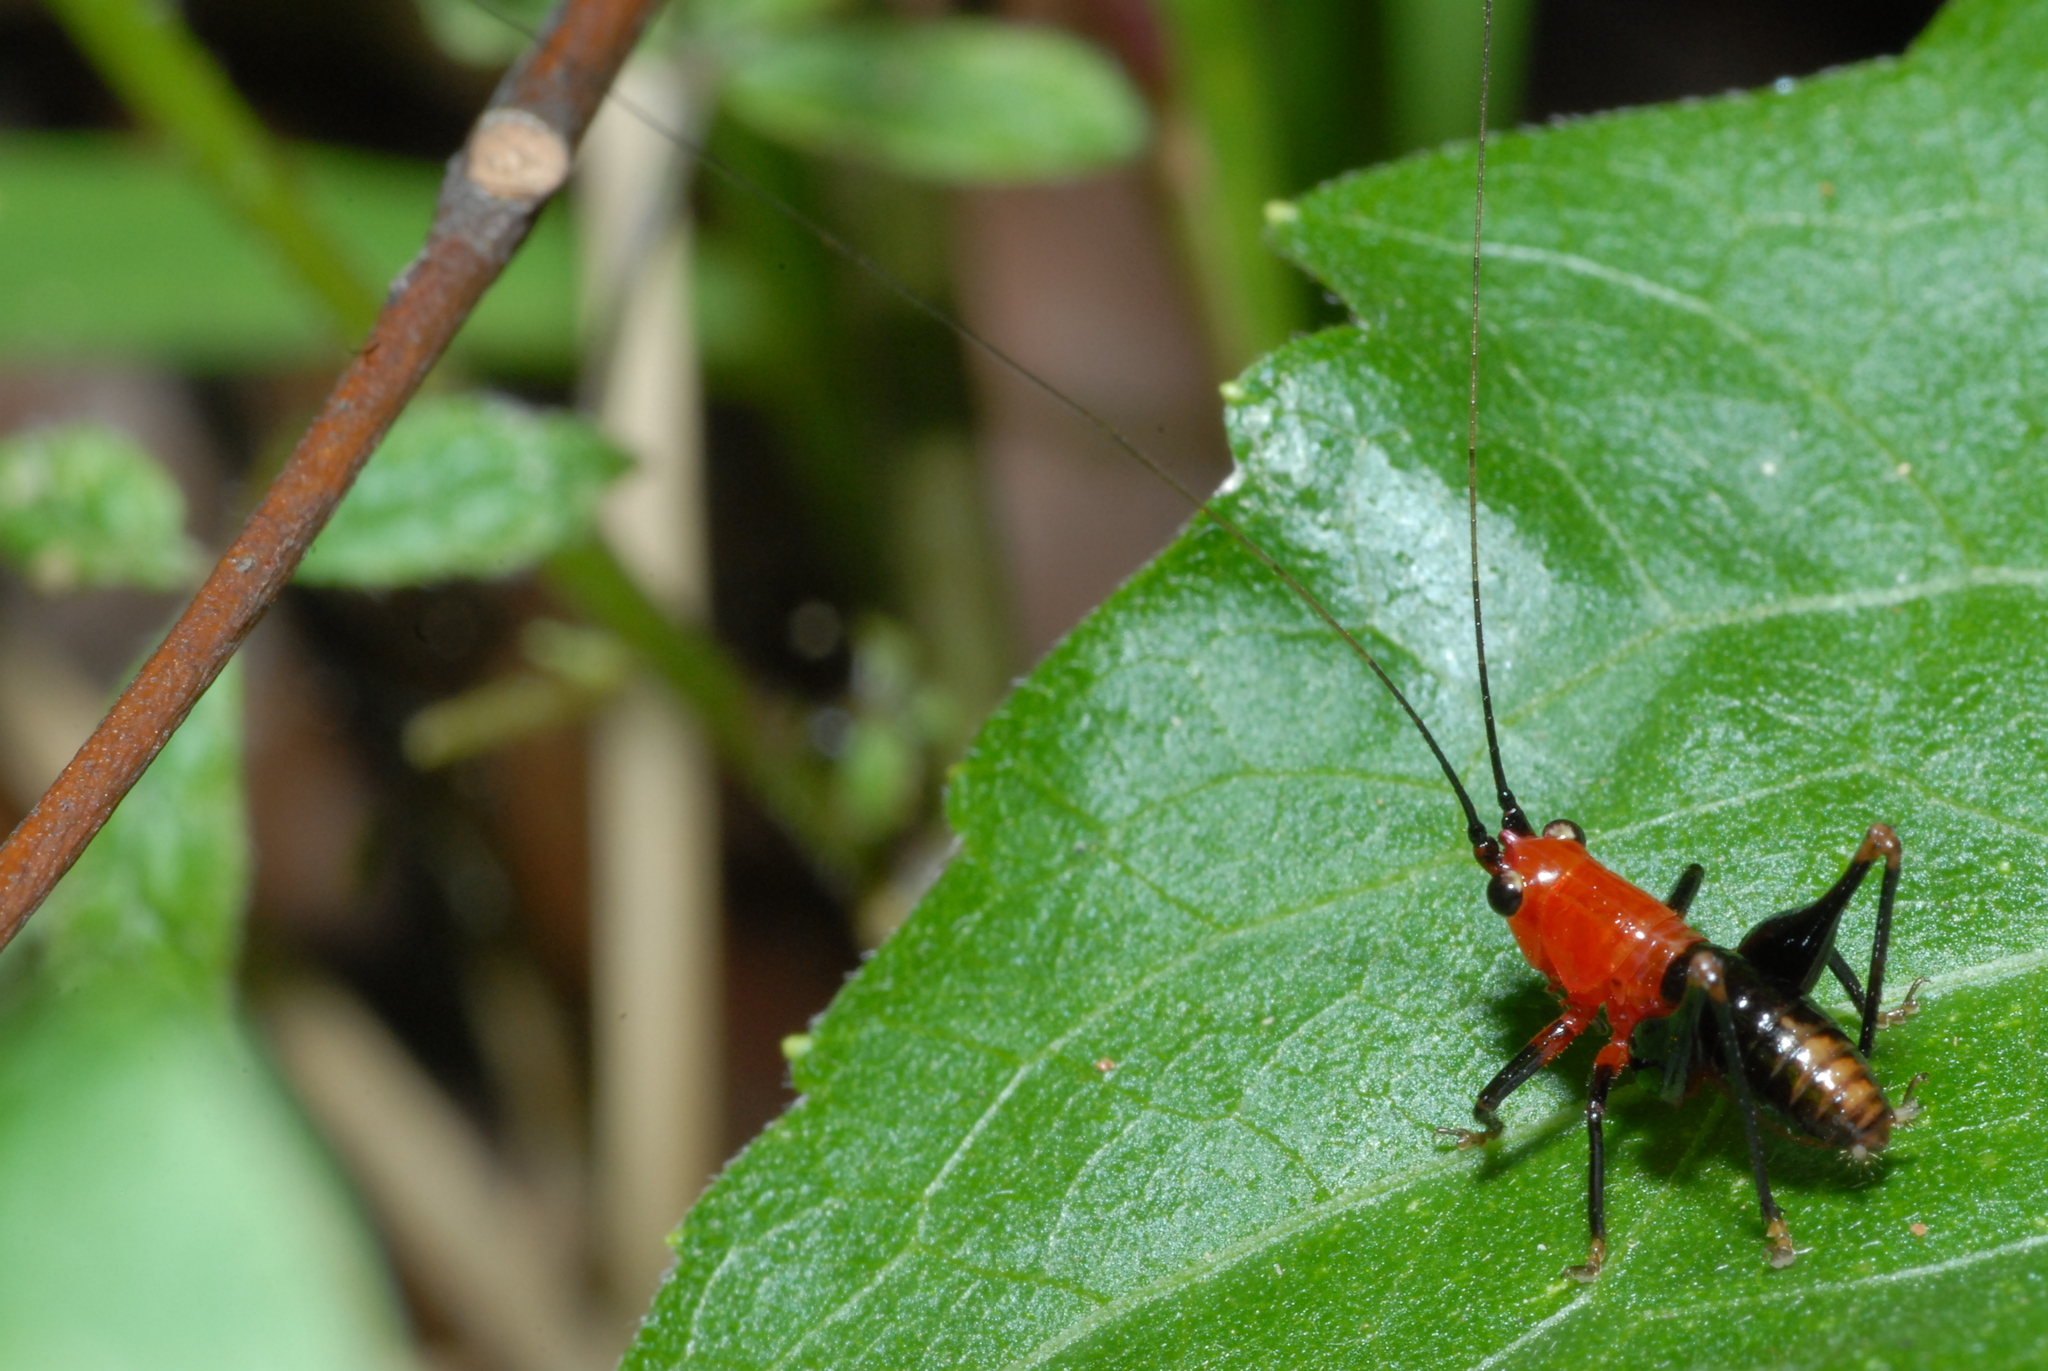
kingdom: Animalia
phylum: Arthropoda
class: Insecta
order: Orthoptera
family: Tettigoniidae
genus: Conocephalus
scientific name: Conocephalus melaenus
